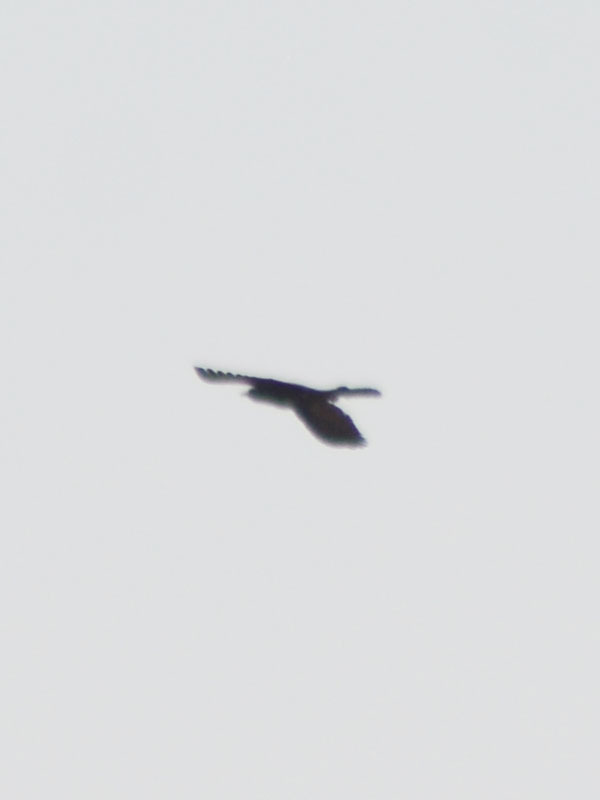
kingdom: Animalia
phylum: Chordata
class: Aves
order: Passeriformes
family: Icteridae
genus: Quiscalus
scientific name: Quiscalus mexicanus
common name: Great-tailed grackle
